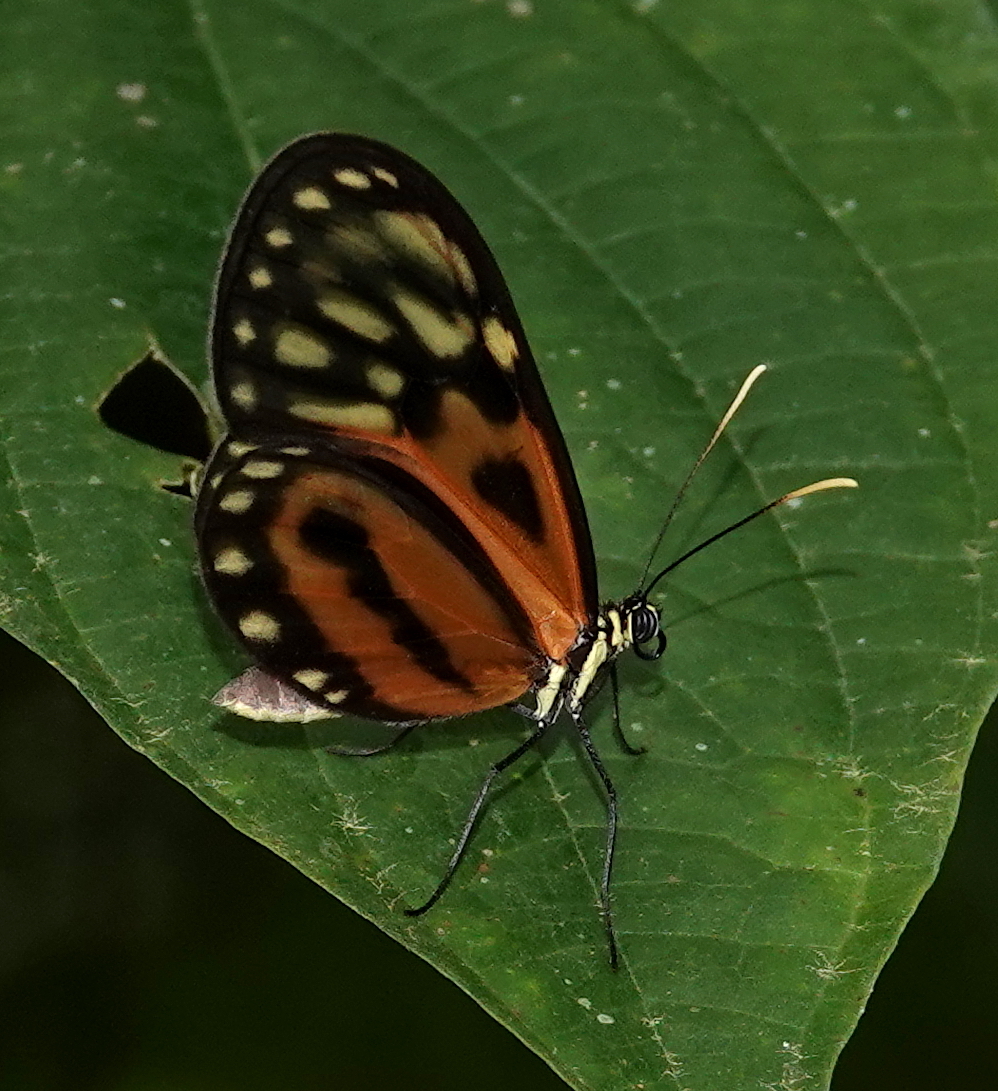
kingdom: Animalia
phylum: Arthropoda
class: Insecta
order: Lepidoptera
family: Nymphalidae
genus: Ceratinia
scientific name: Ceratinia iolaia
